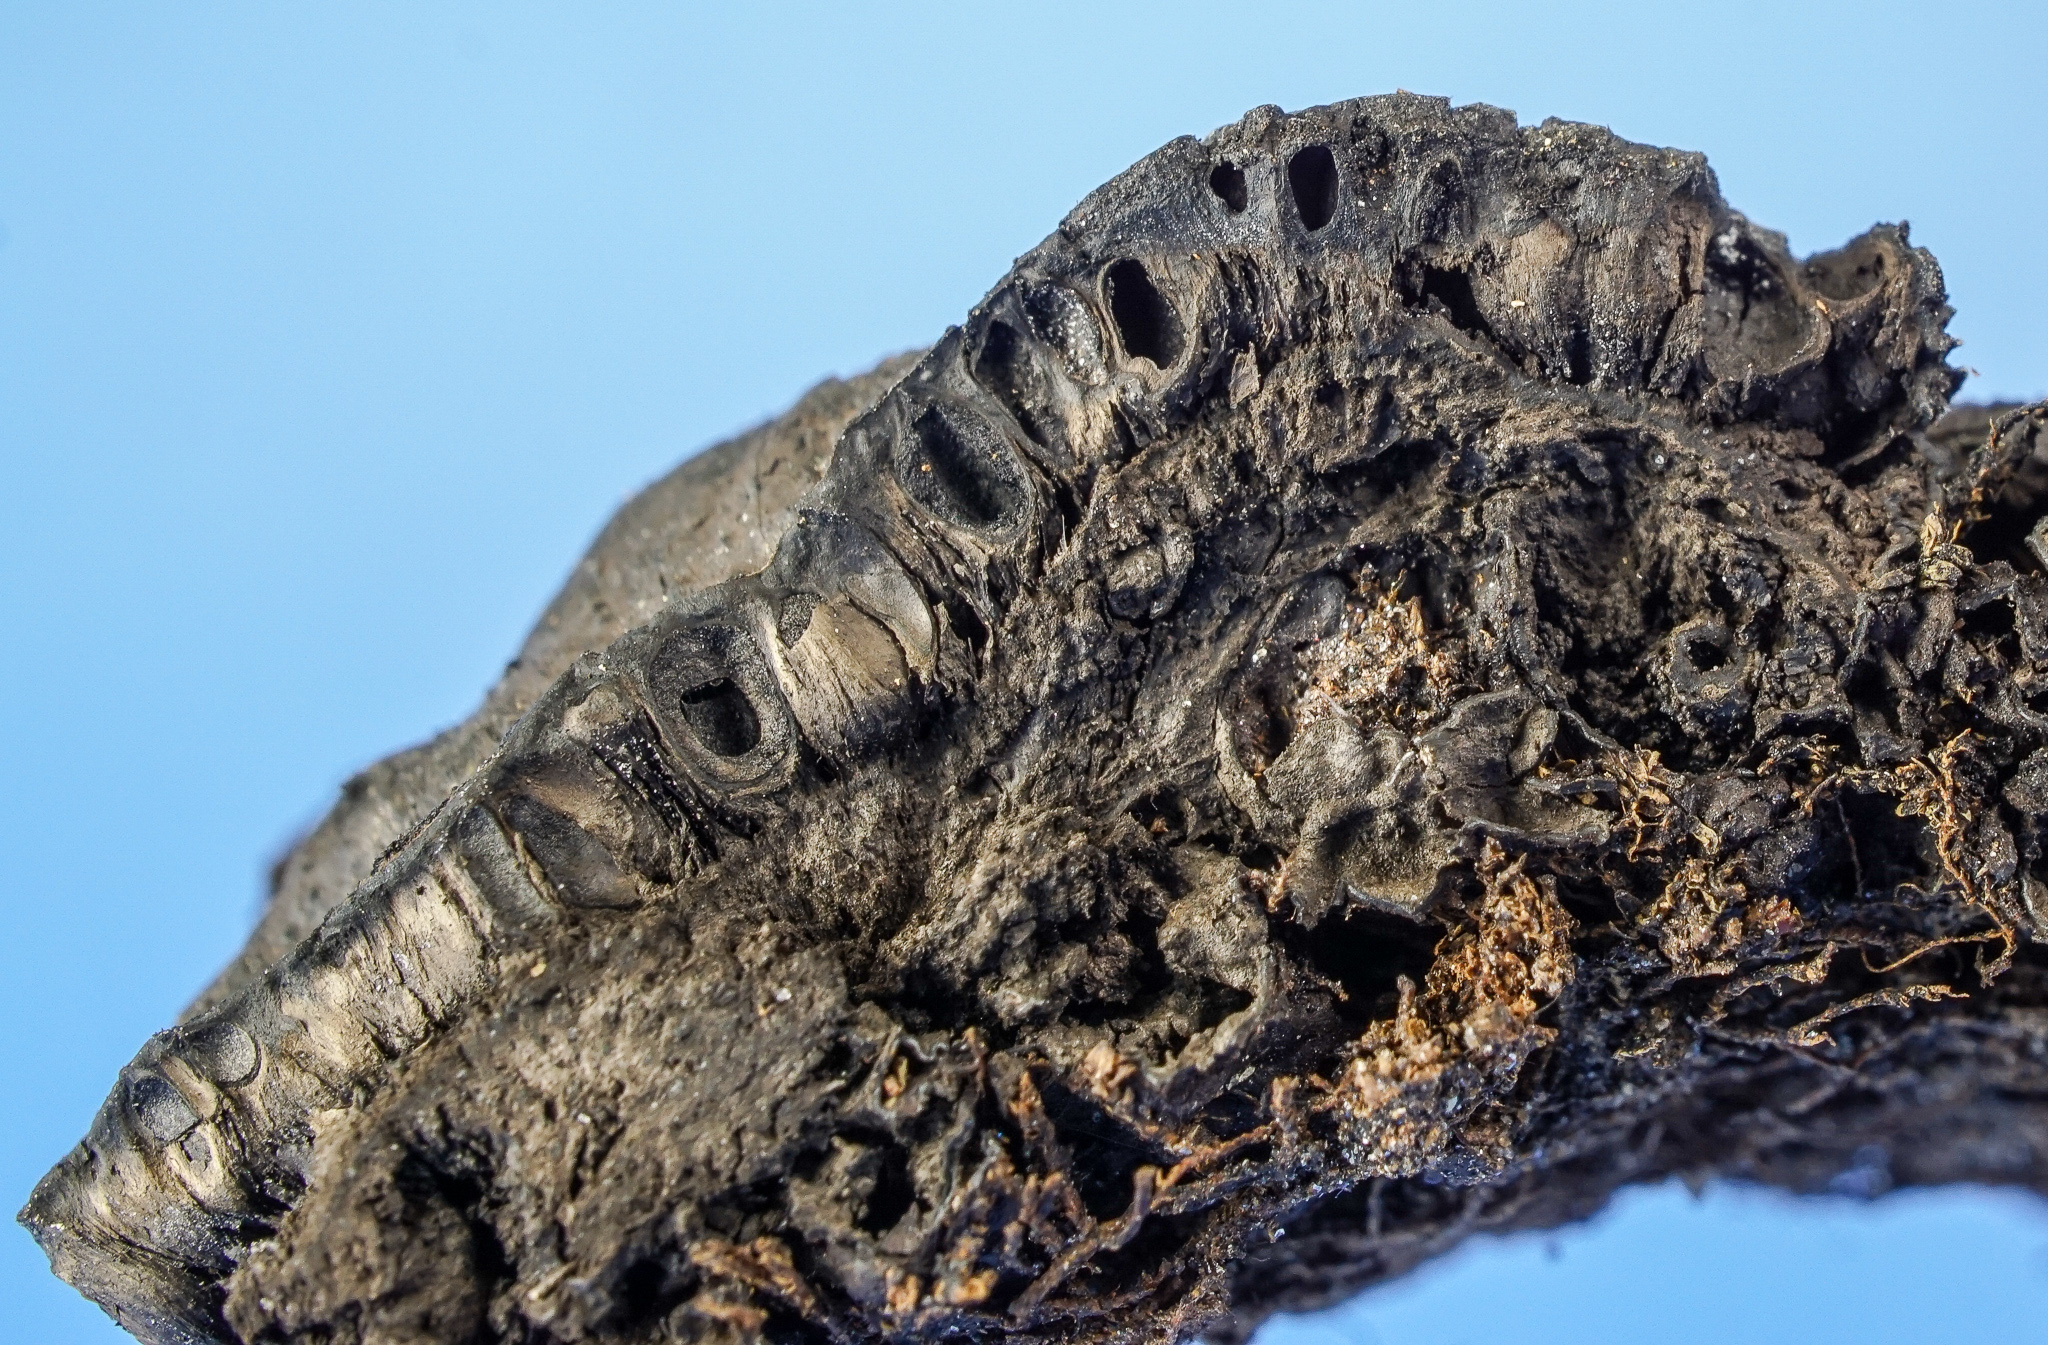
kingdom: Fungi
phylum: Ascomycota
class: Sordariomycetes
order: Xylariales
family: Xylariaceae
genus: Kretzschmaria
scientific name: Kretzschmaria deusta
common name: Brittle cinder
